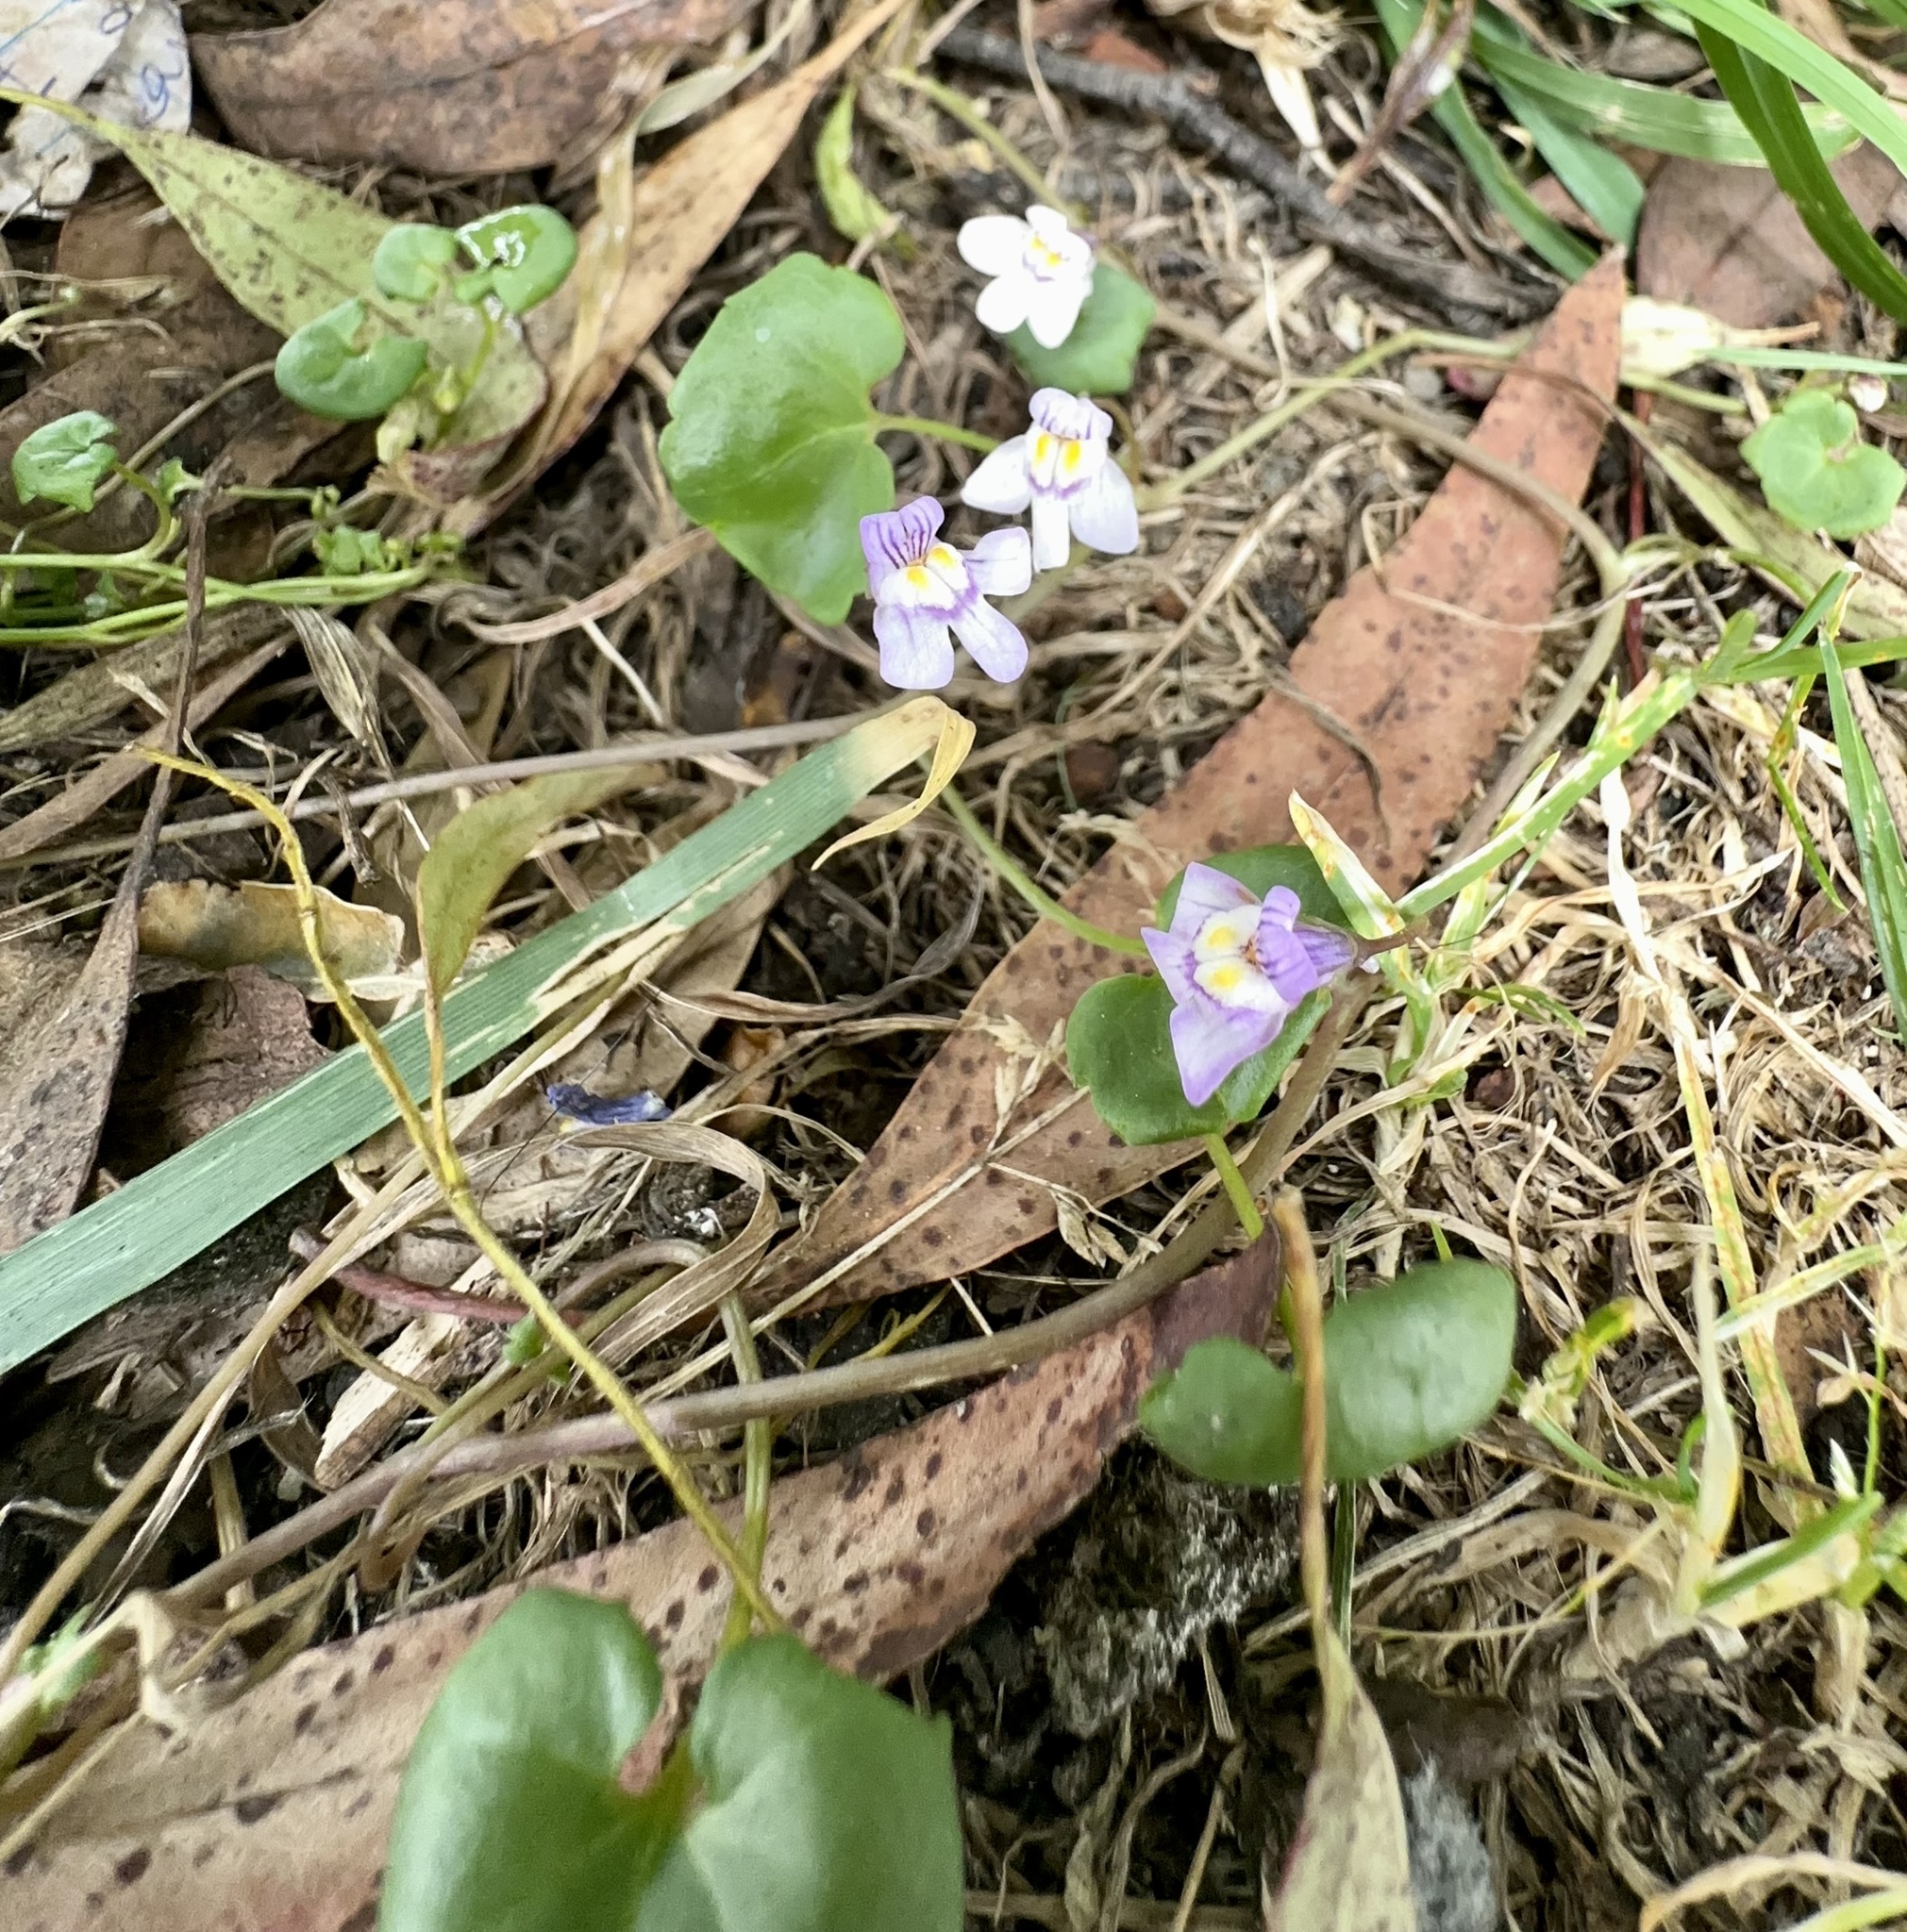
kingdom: Plantae
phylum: Tracheophyta
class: Magnoliopsida
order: Lamiales
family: Plantaginaceae
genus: Cymbalaria
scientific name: Cymbalaria muralis
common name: Ivy-leaved toadflax
